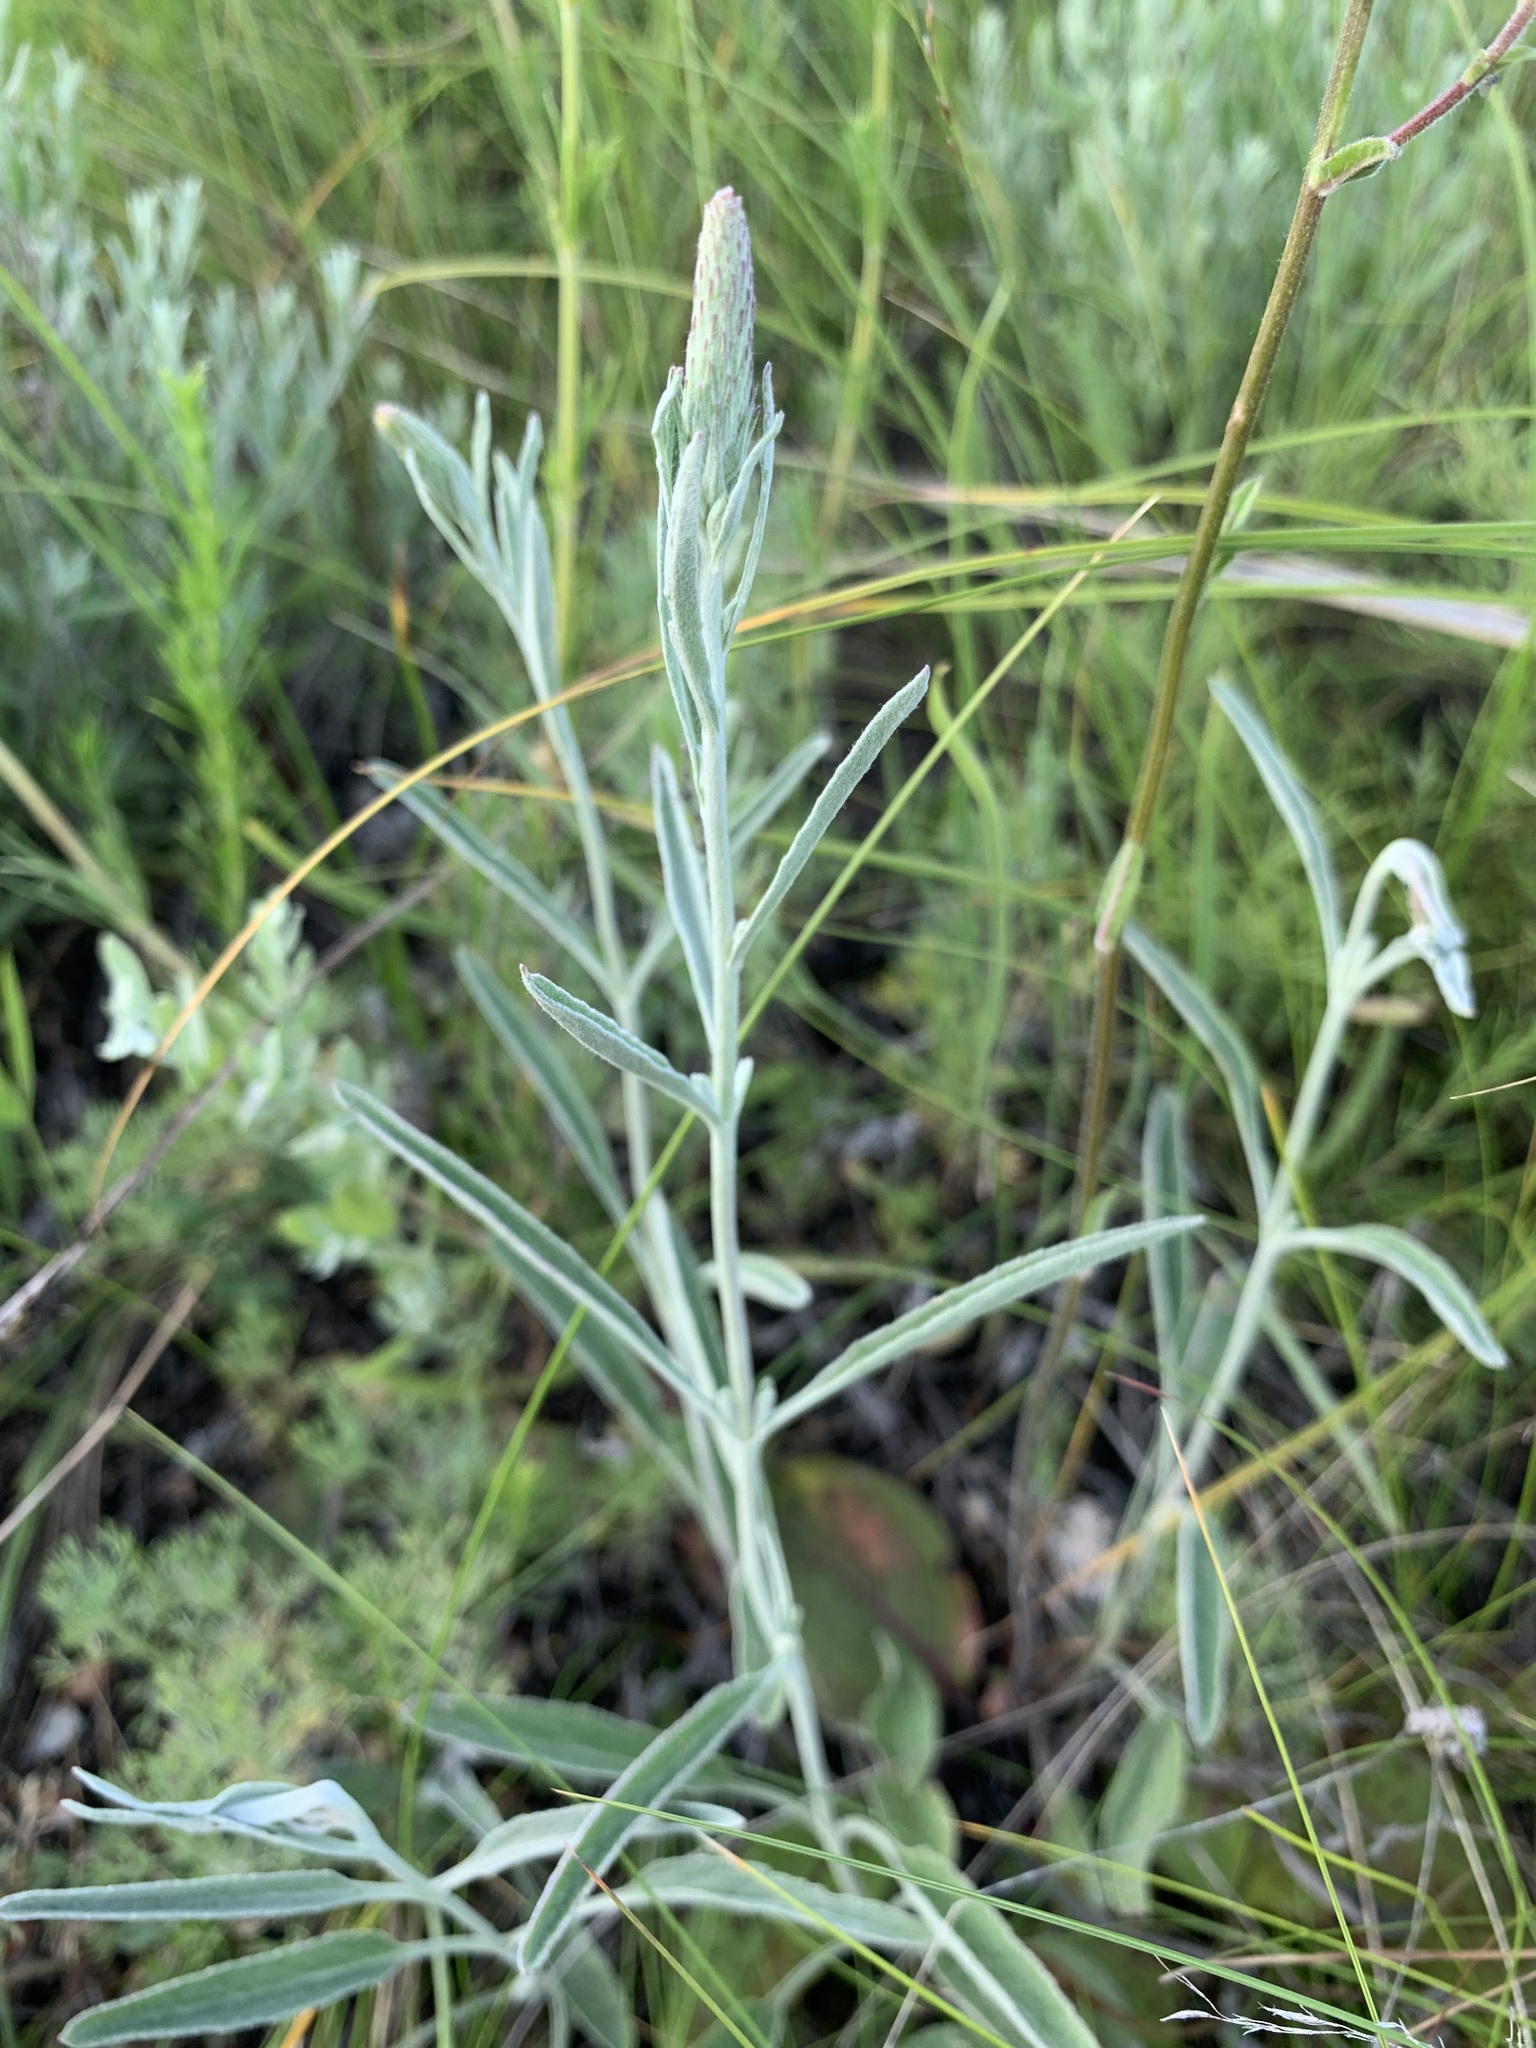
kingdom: Plantae
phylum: Tracheophyta
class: Magnoliopsida
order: Lamiales
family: Plantaginaceae
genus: Veronica
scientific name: Veronica incana
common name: Silver speedwell
